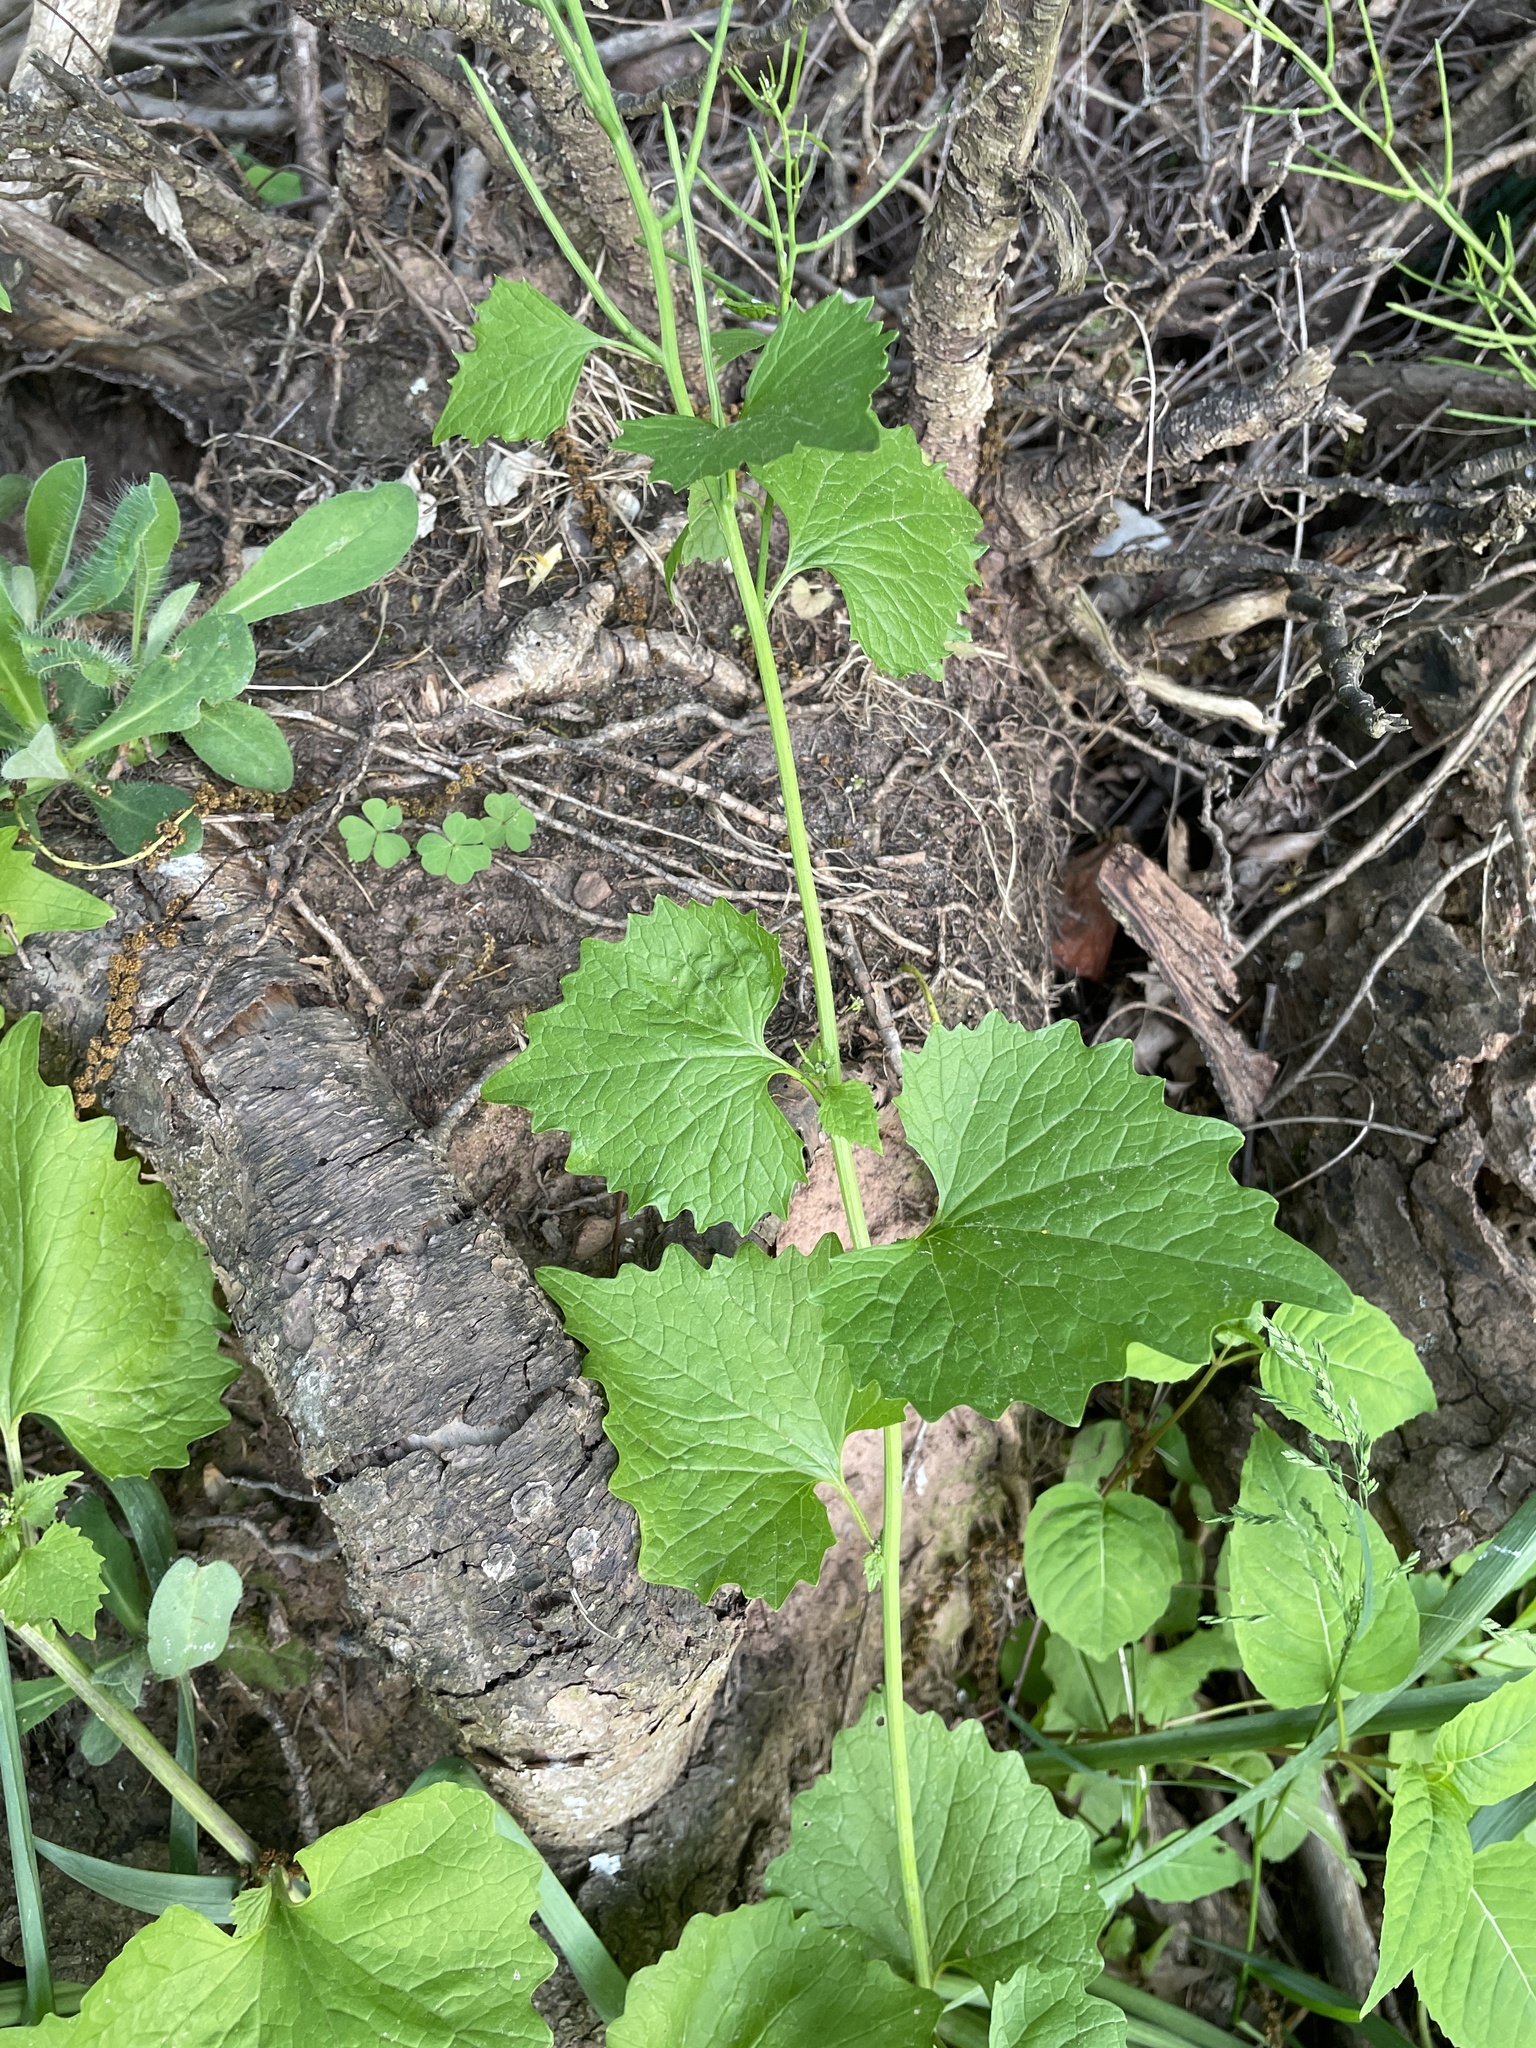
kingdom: Plantae
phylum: Tracheophyta
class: Magnoliopsida
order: Brassicales
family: Brassicaceae
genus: Alliaria
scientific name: Alliaria petiolata
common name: Garlic mustard
